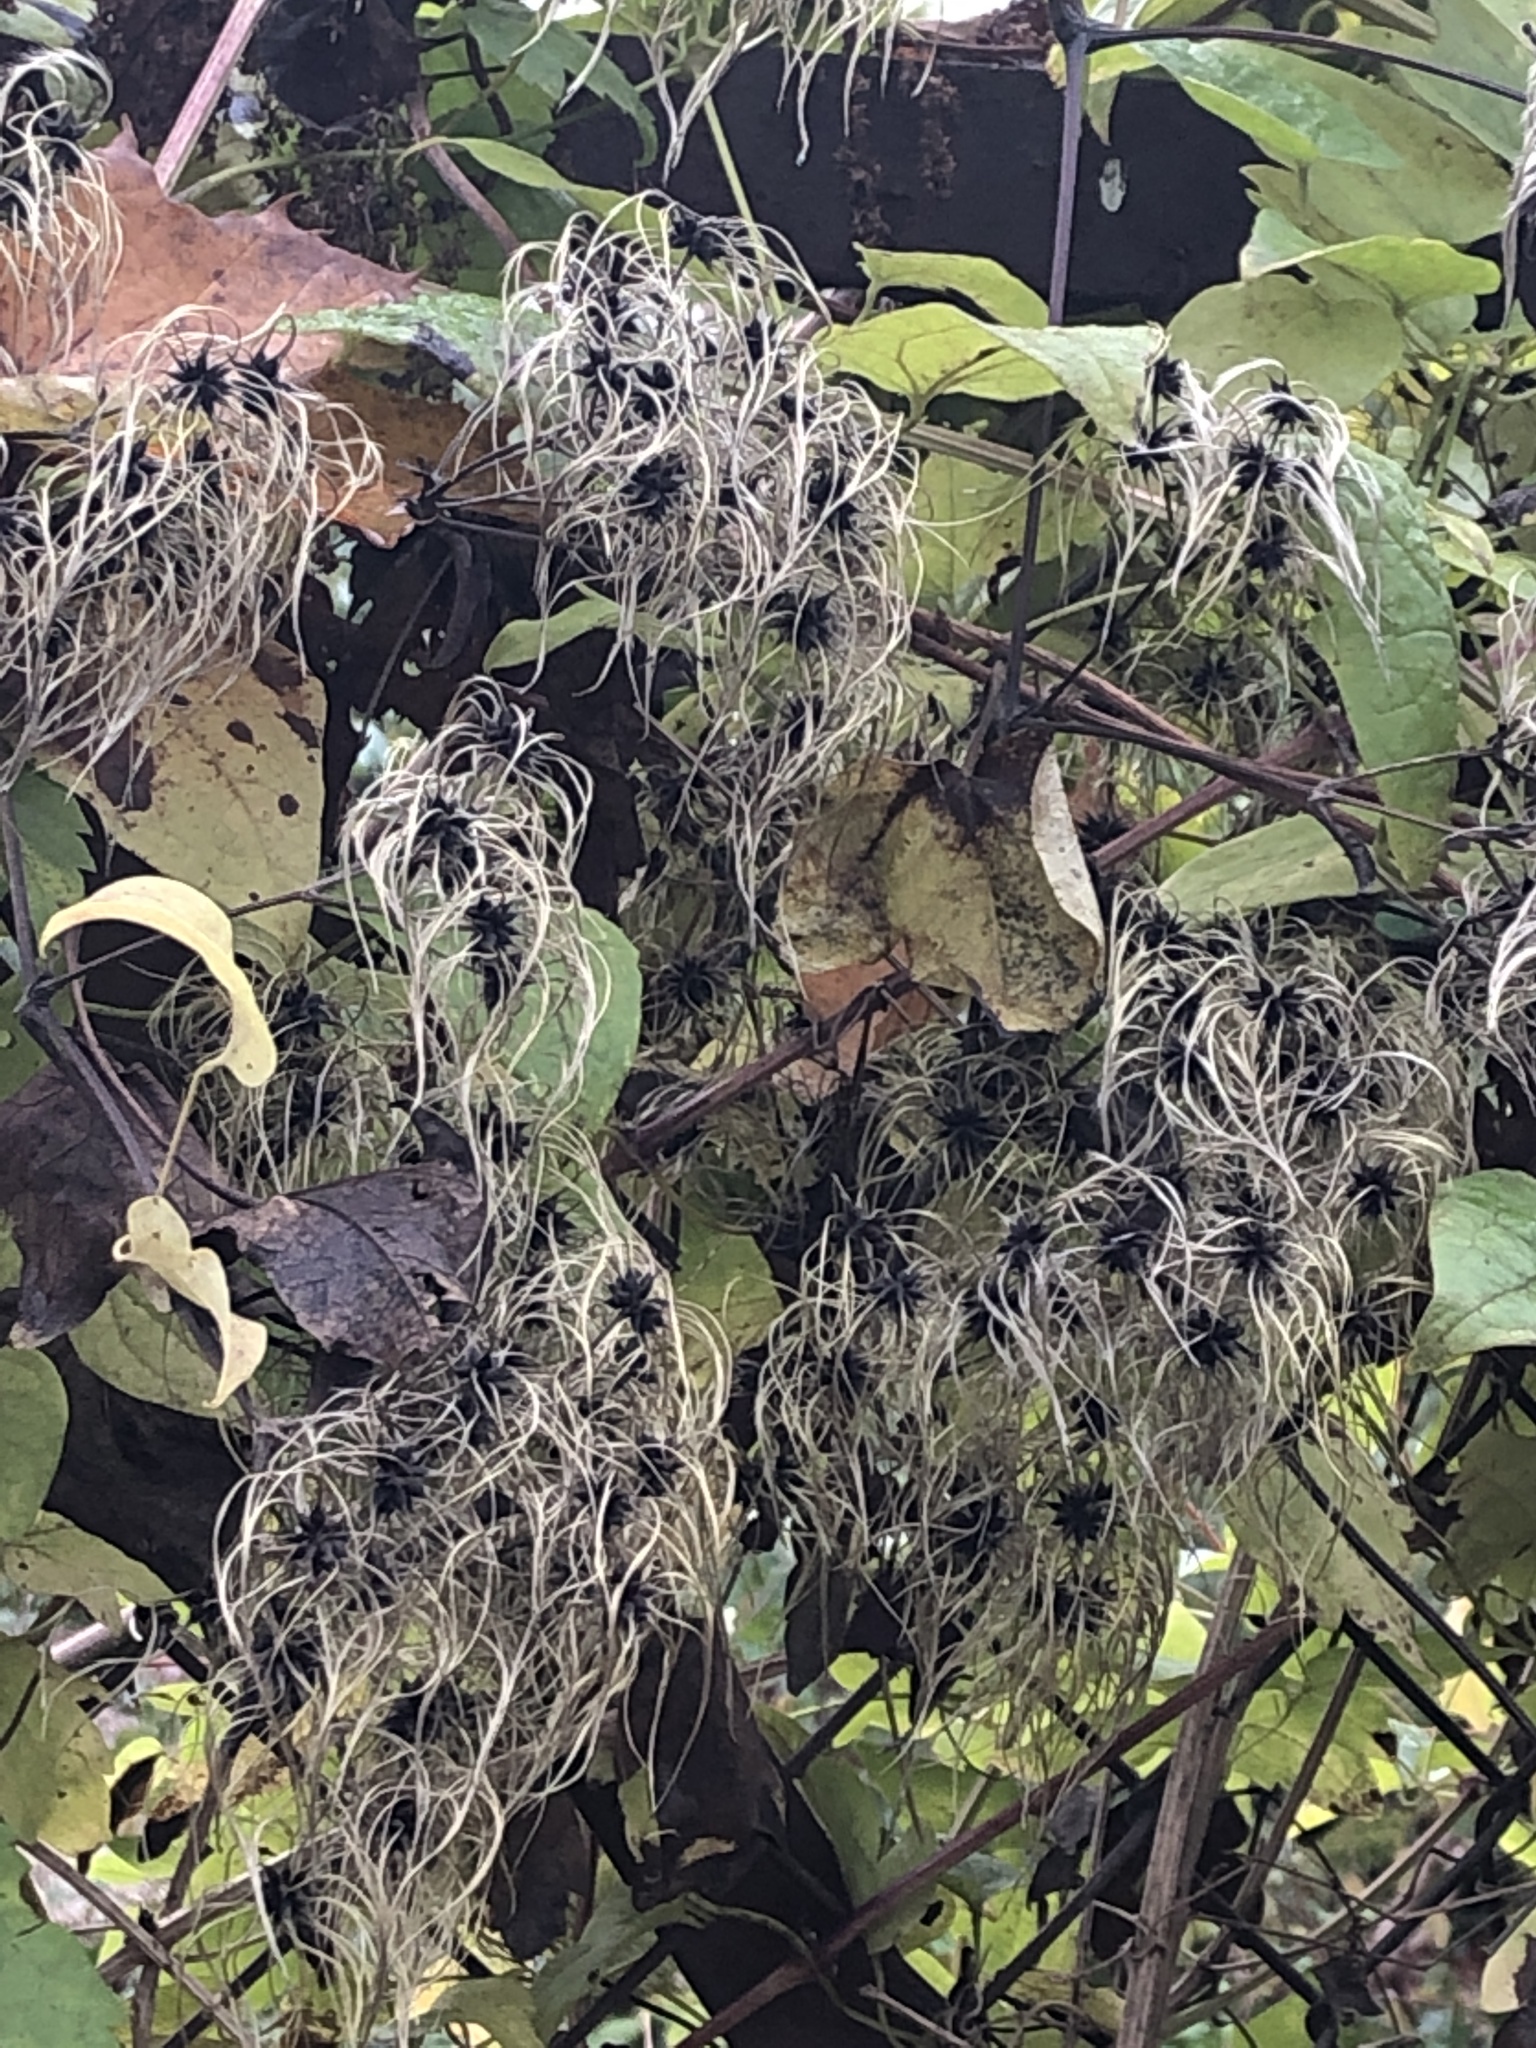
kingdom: Plantae
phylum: Tracheophyta
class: Magnoliopsida
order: Ranunculales
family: Ranunculaceae
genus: Clematis
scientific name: Clematis vitalba
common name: Evergreen clematis
